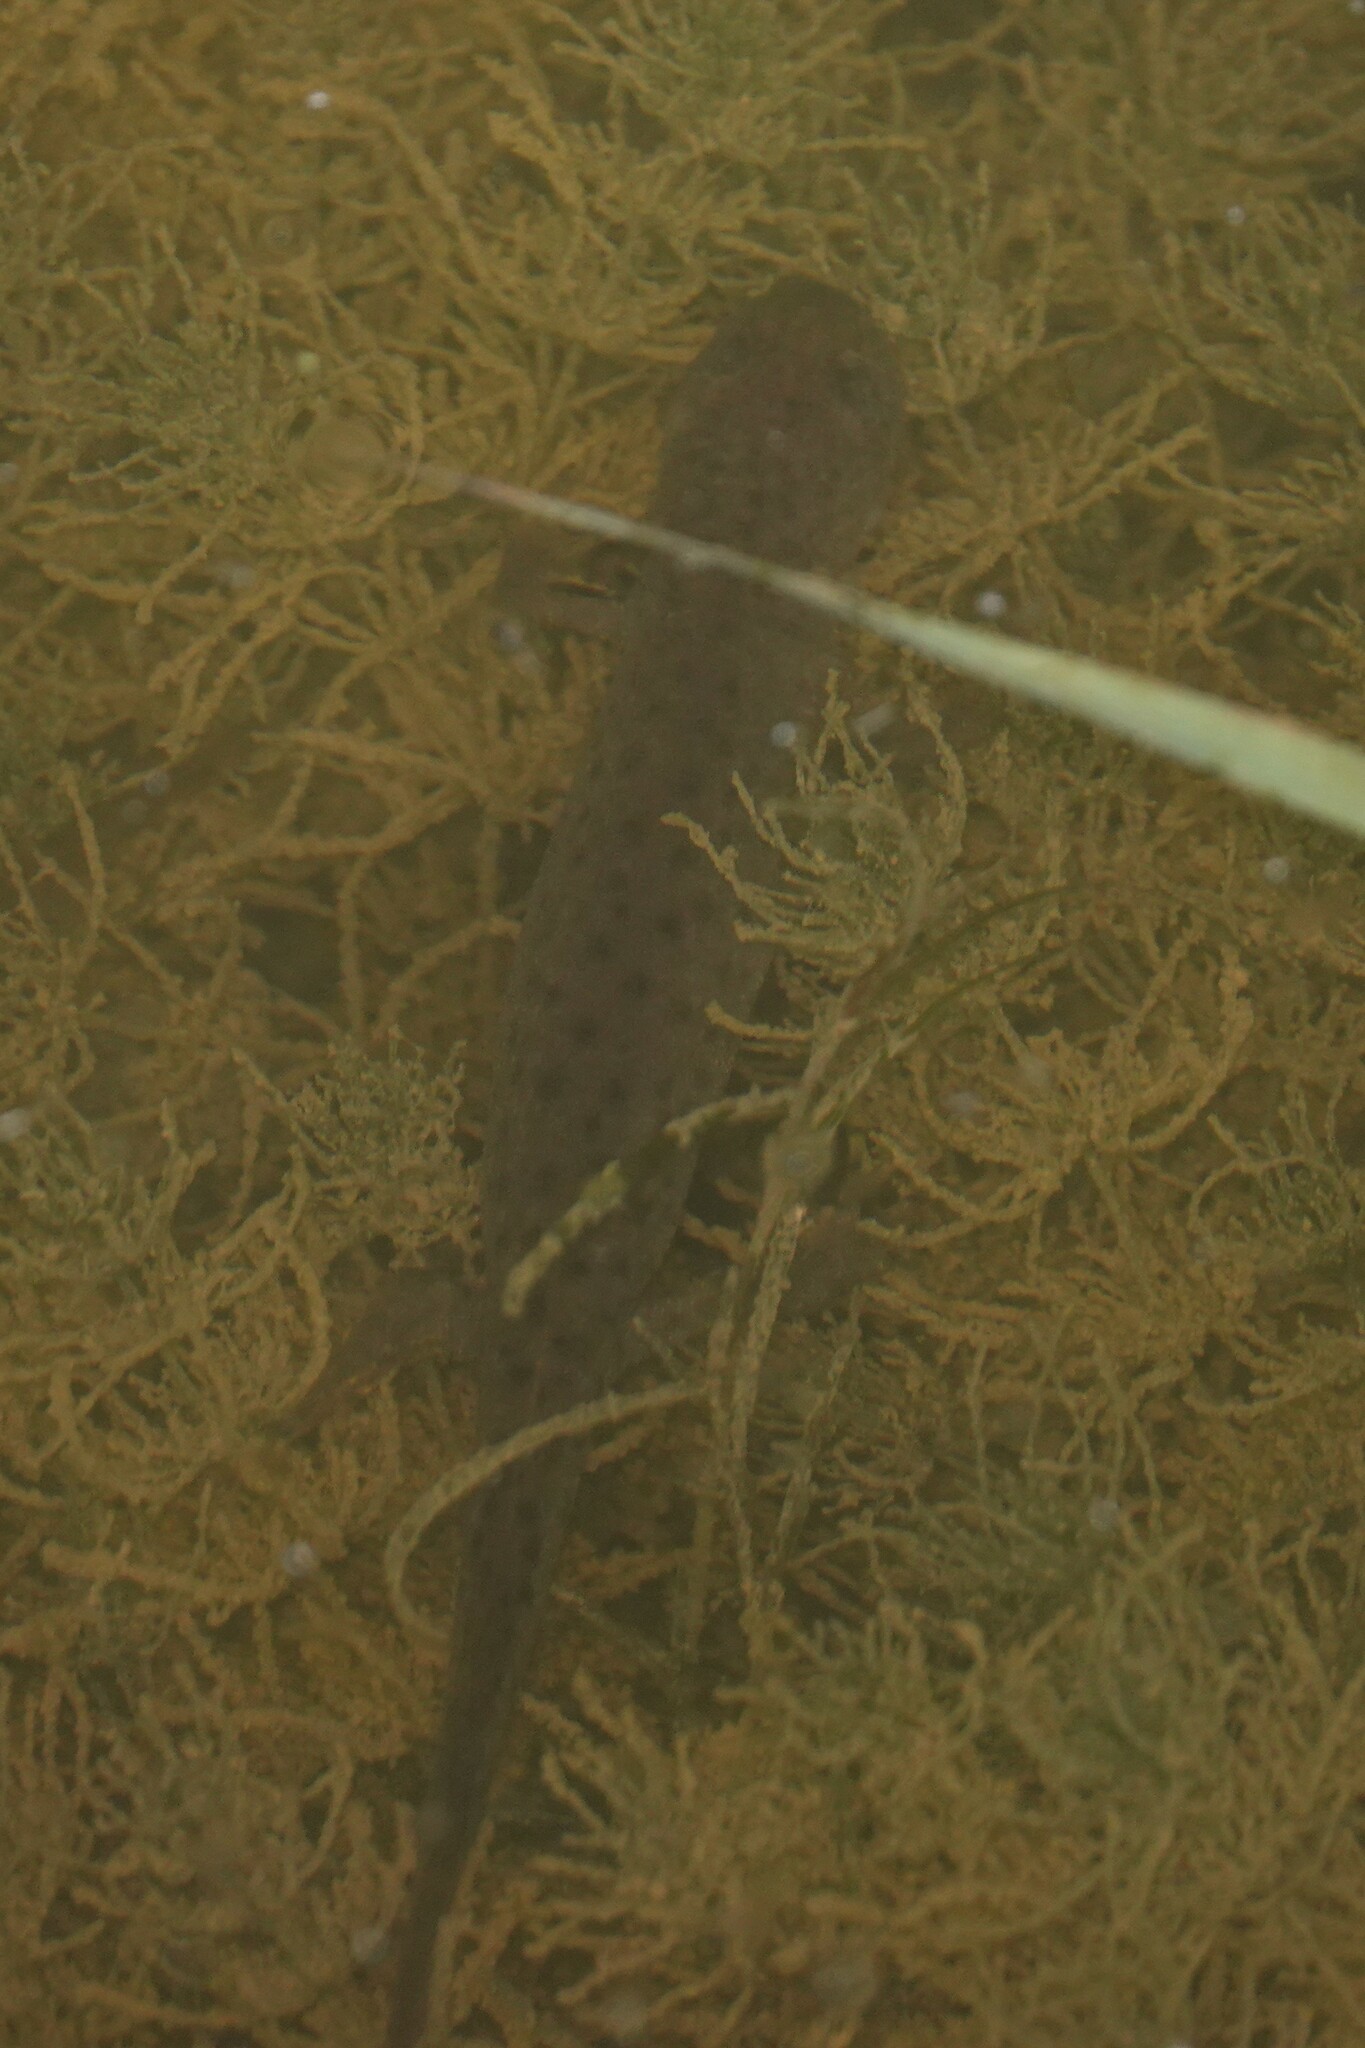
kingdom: Animalia
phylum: Chordata
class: Amphibia
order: Caudata
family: Salamandridae
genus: Triturus
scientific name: Triturus cristatus
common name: Crested newt
